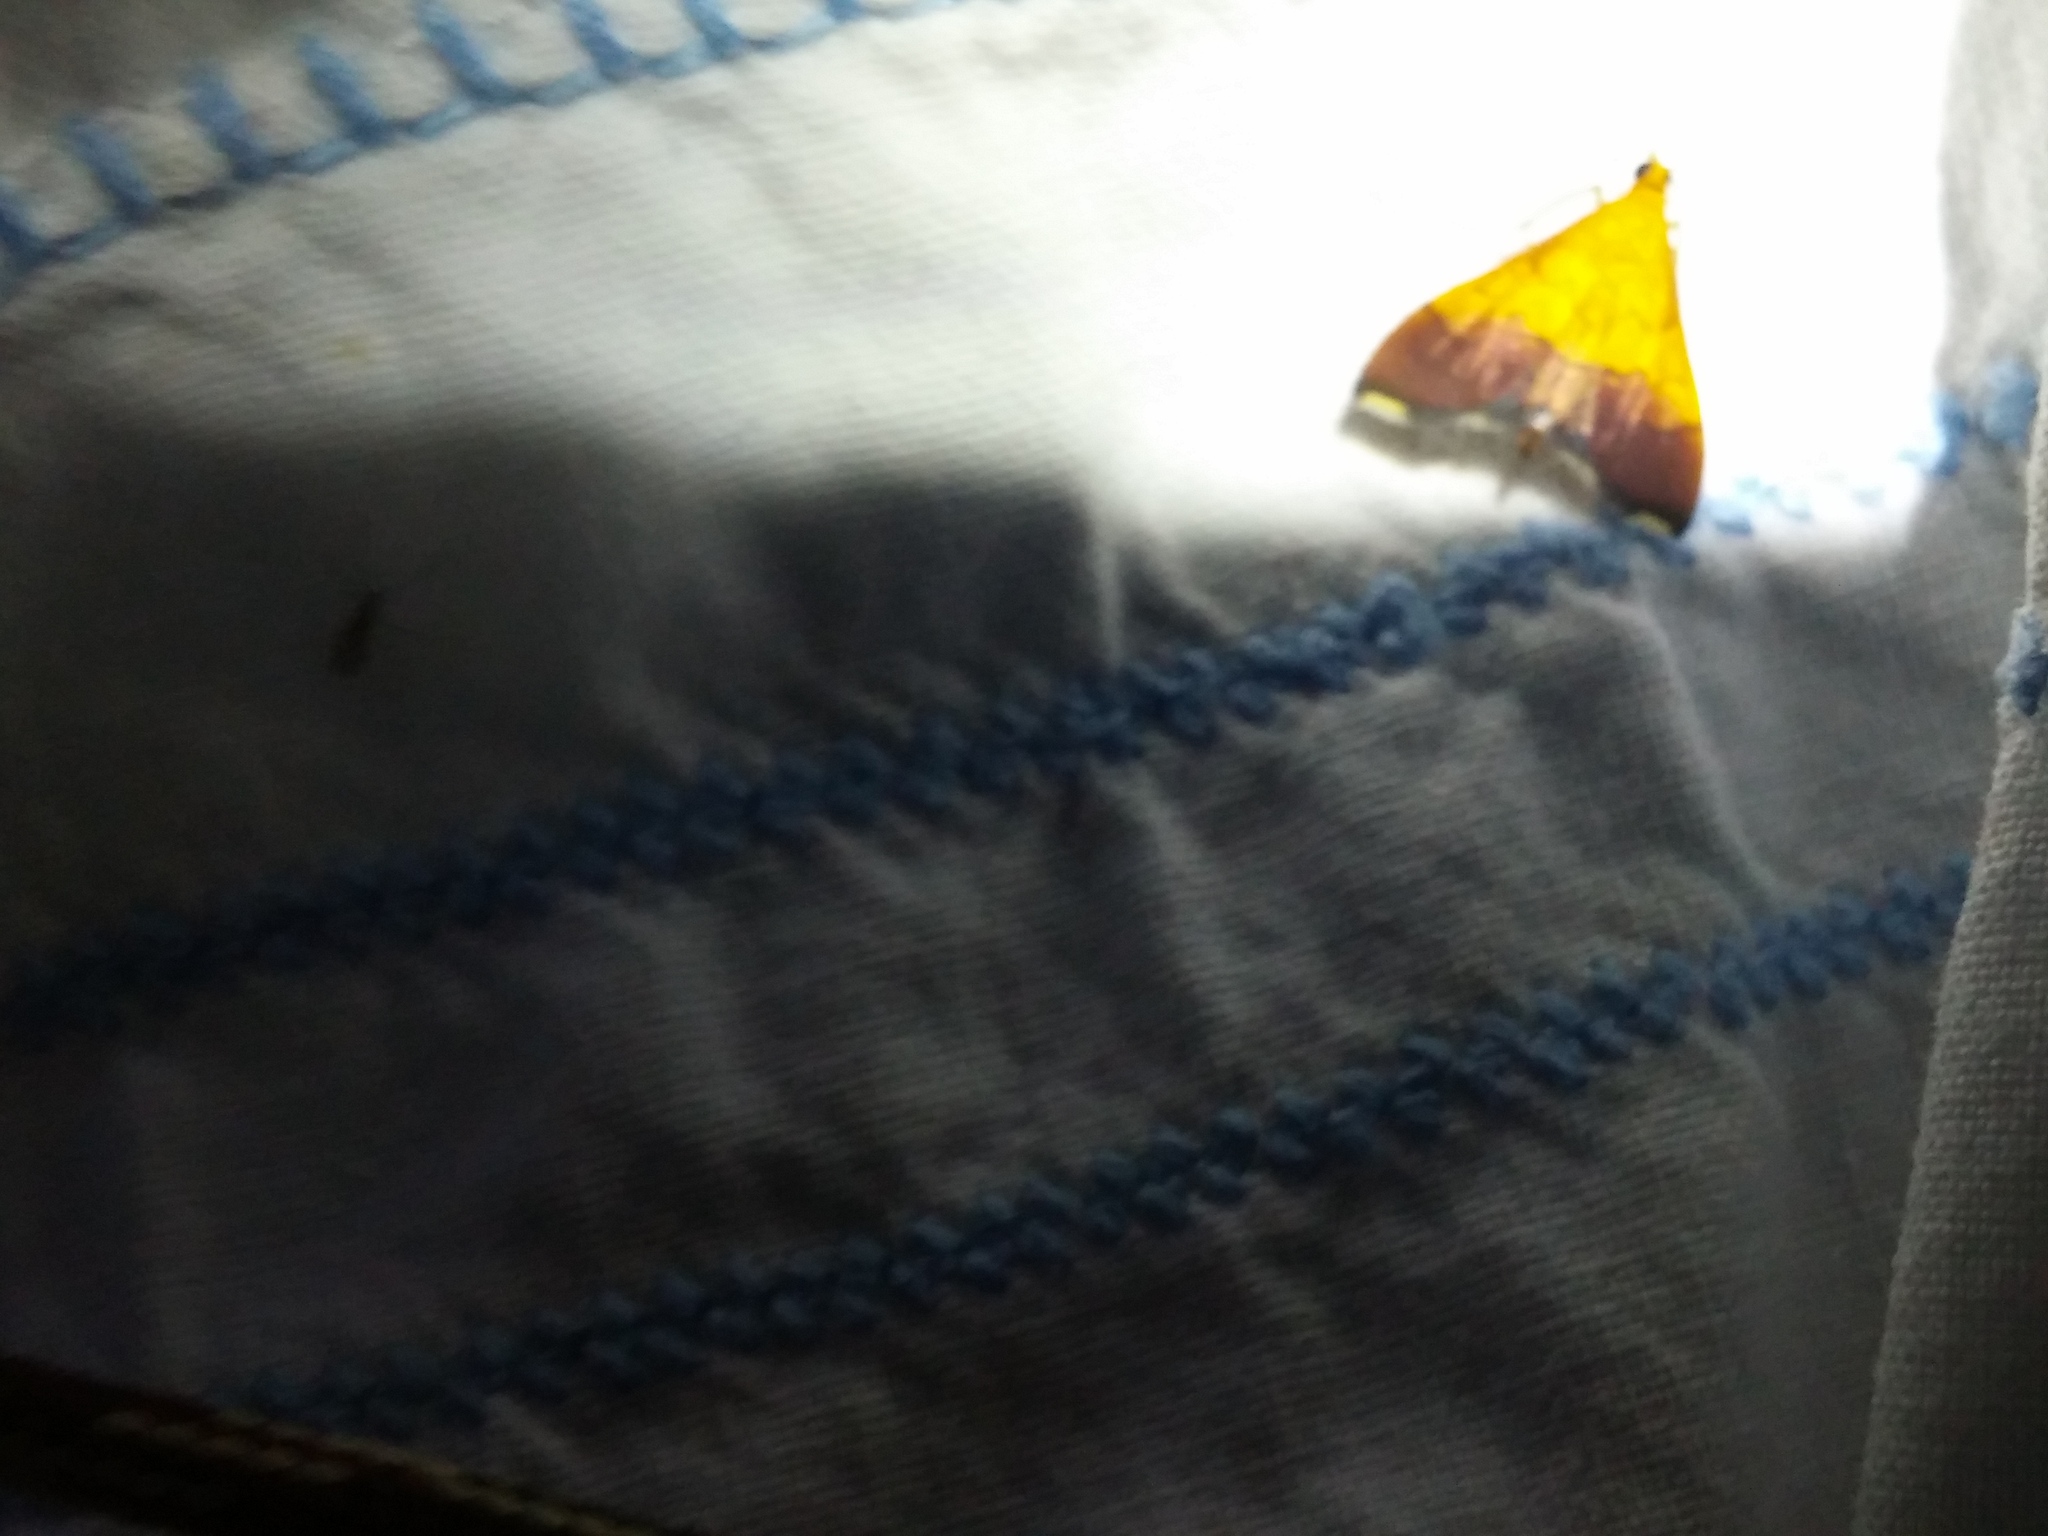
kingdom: Animalia
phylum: Arthropoda
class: Insecta
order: Lepidoptera
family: Crambidae
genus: Pyrausta
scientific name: Pyrausta bicoloralis
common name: Bicolored pyrausta moth
